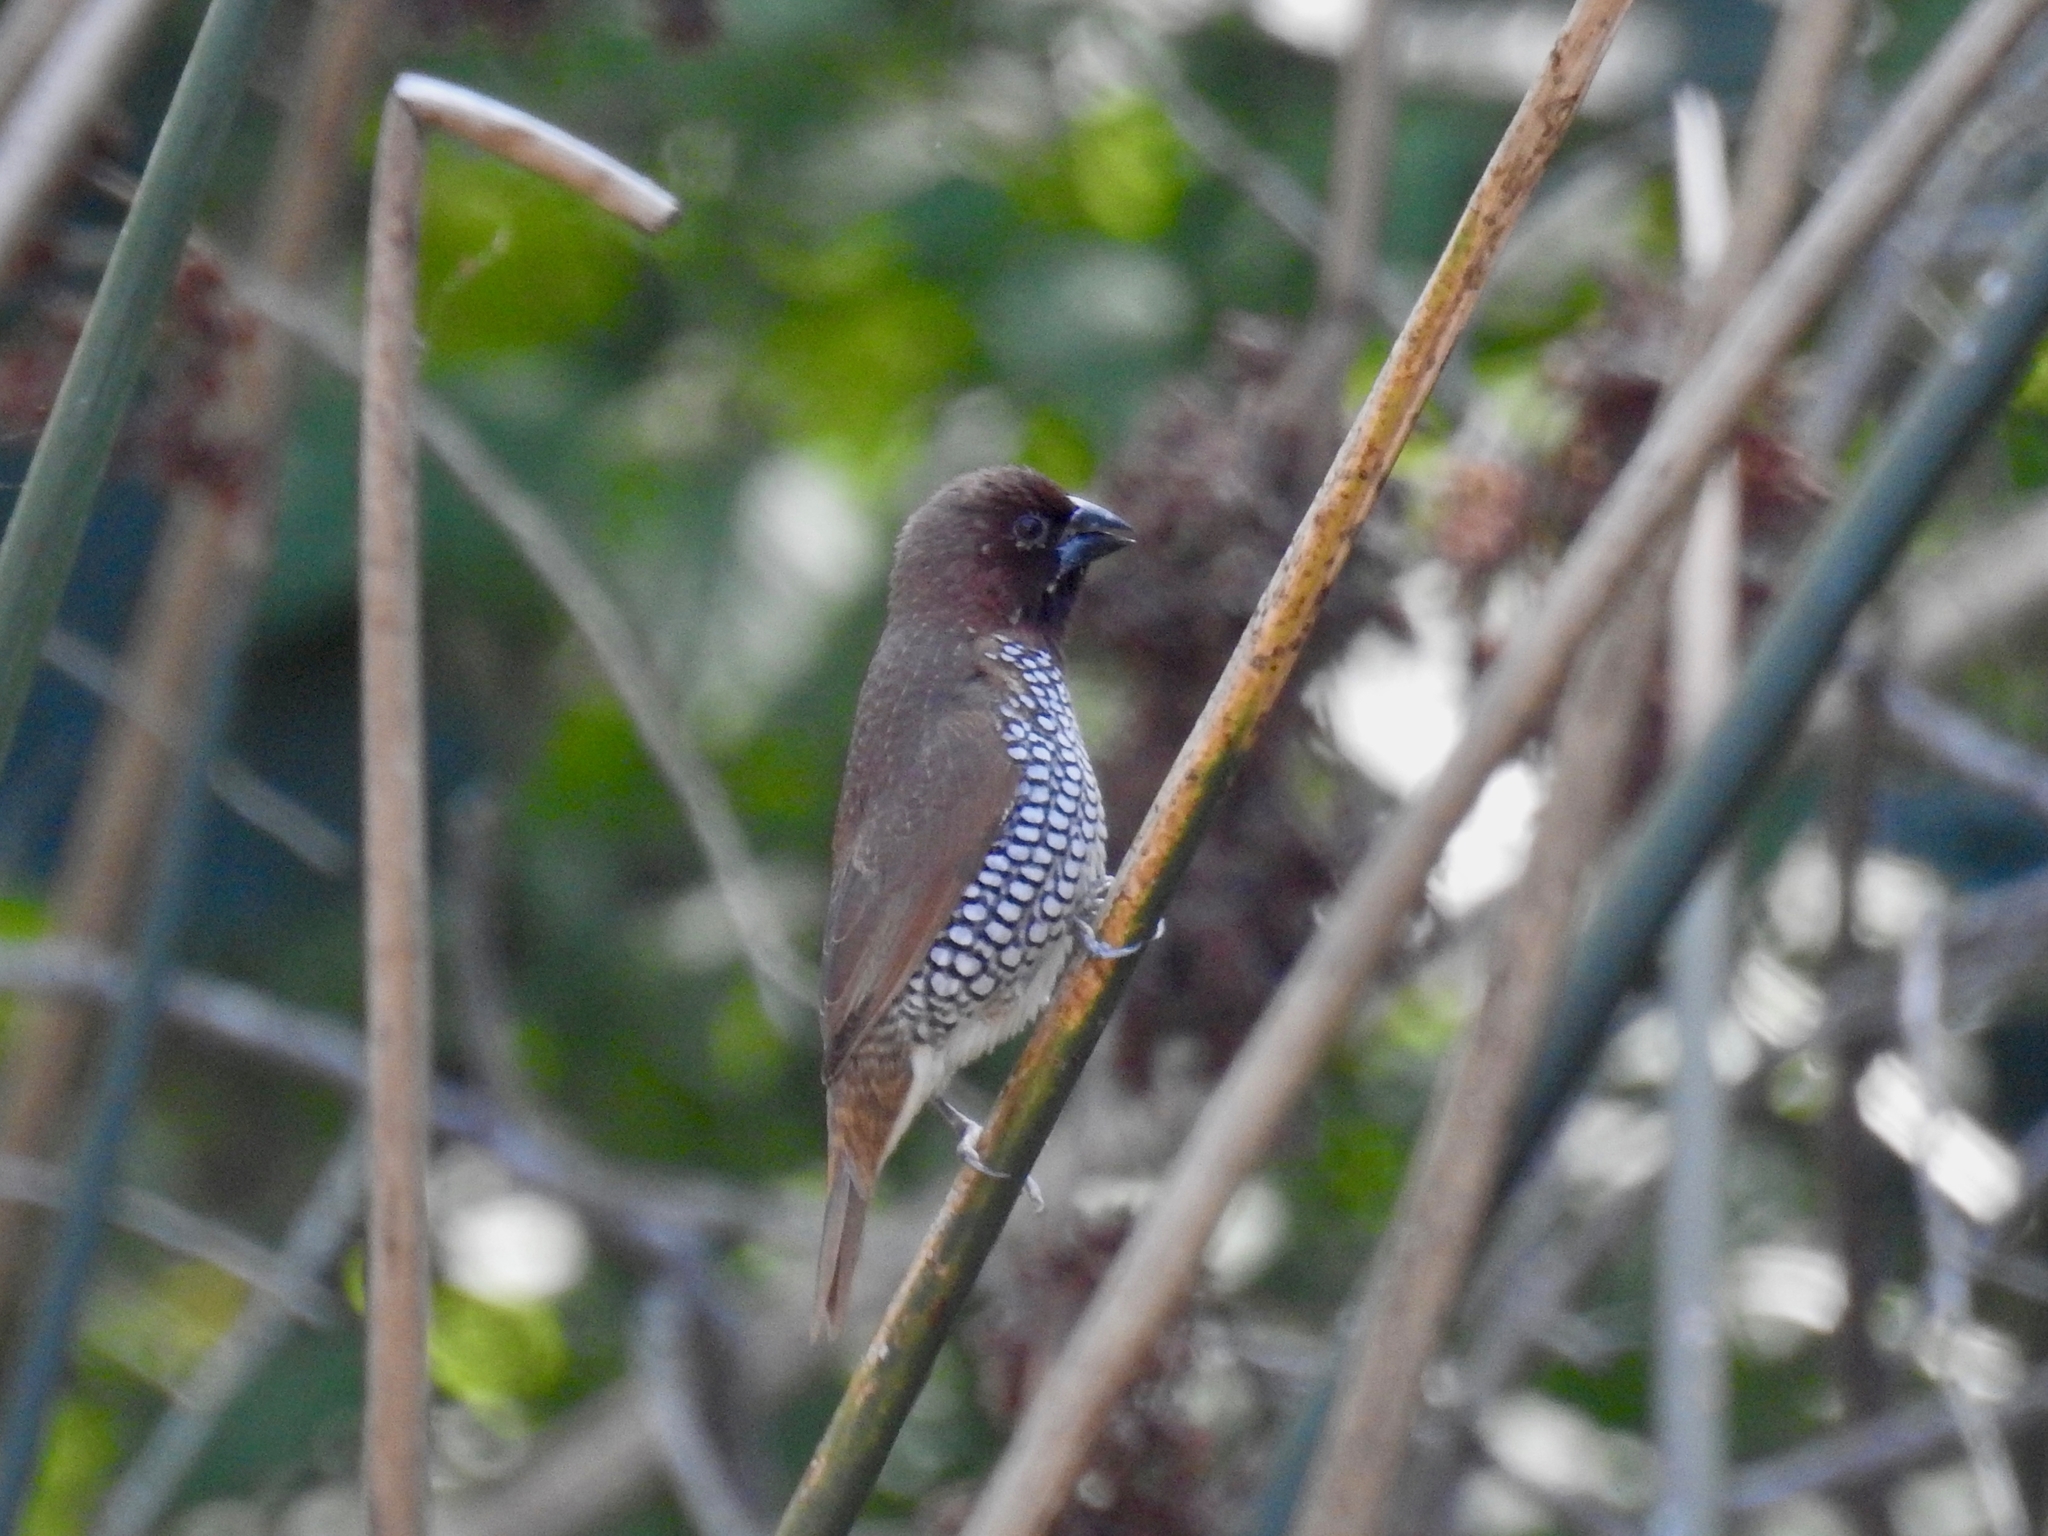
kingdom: Animalia
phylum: Chordata
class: Aves
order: Passeriformes
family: Estrildidae
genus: Lonchura
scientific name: Lonchura punctulata
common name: Scaly-breasted munia
